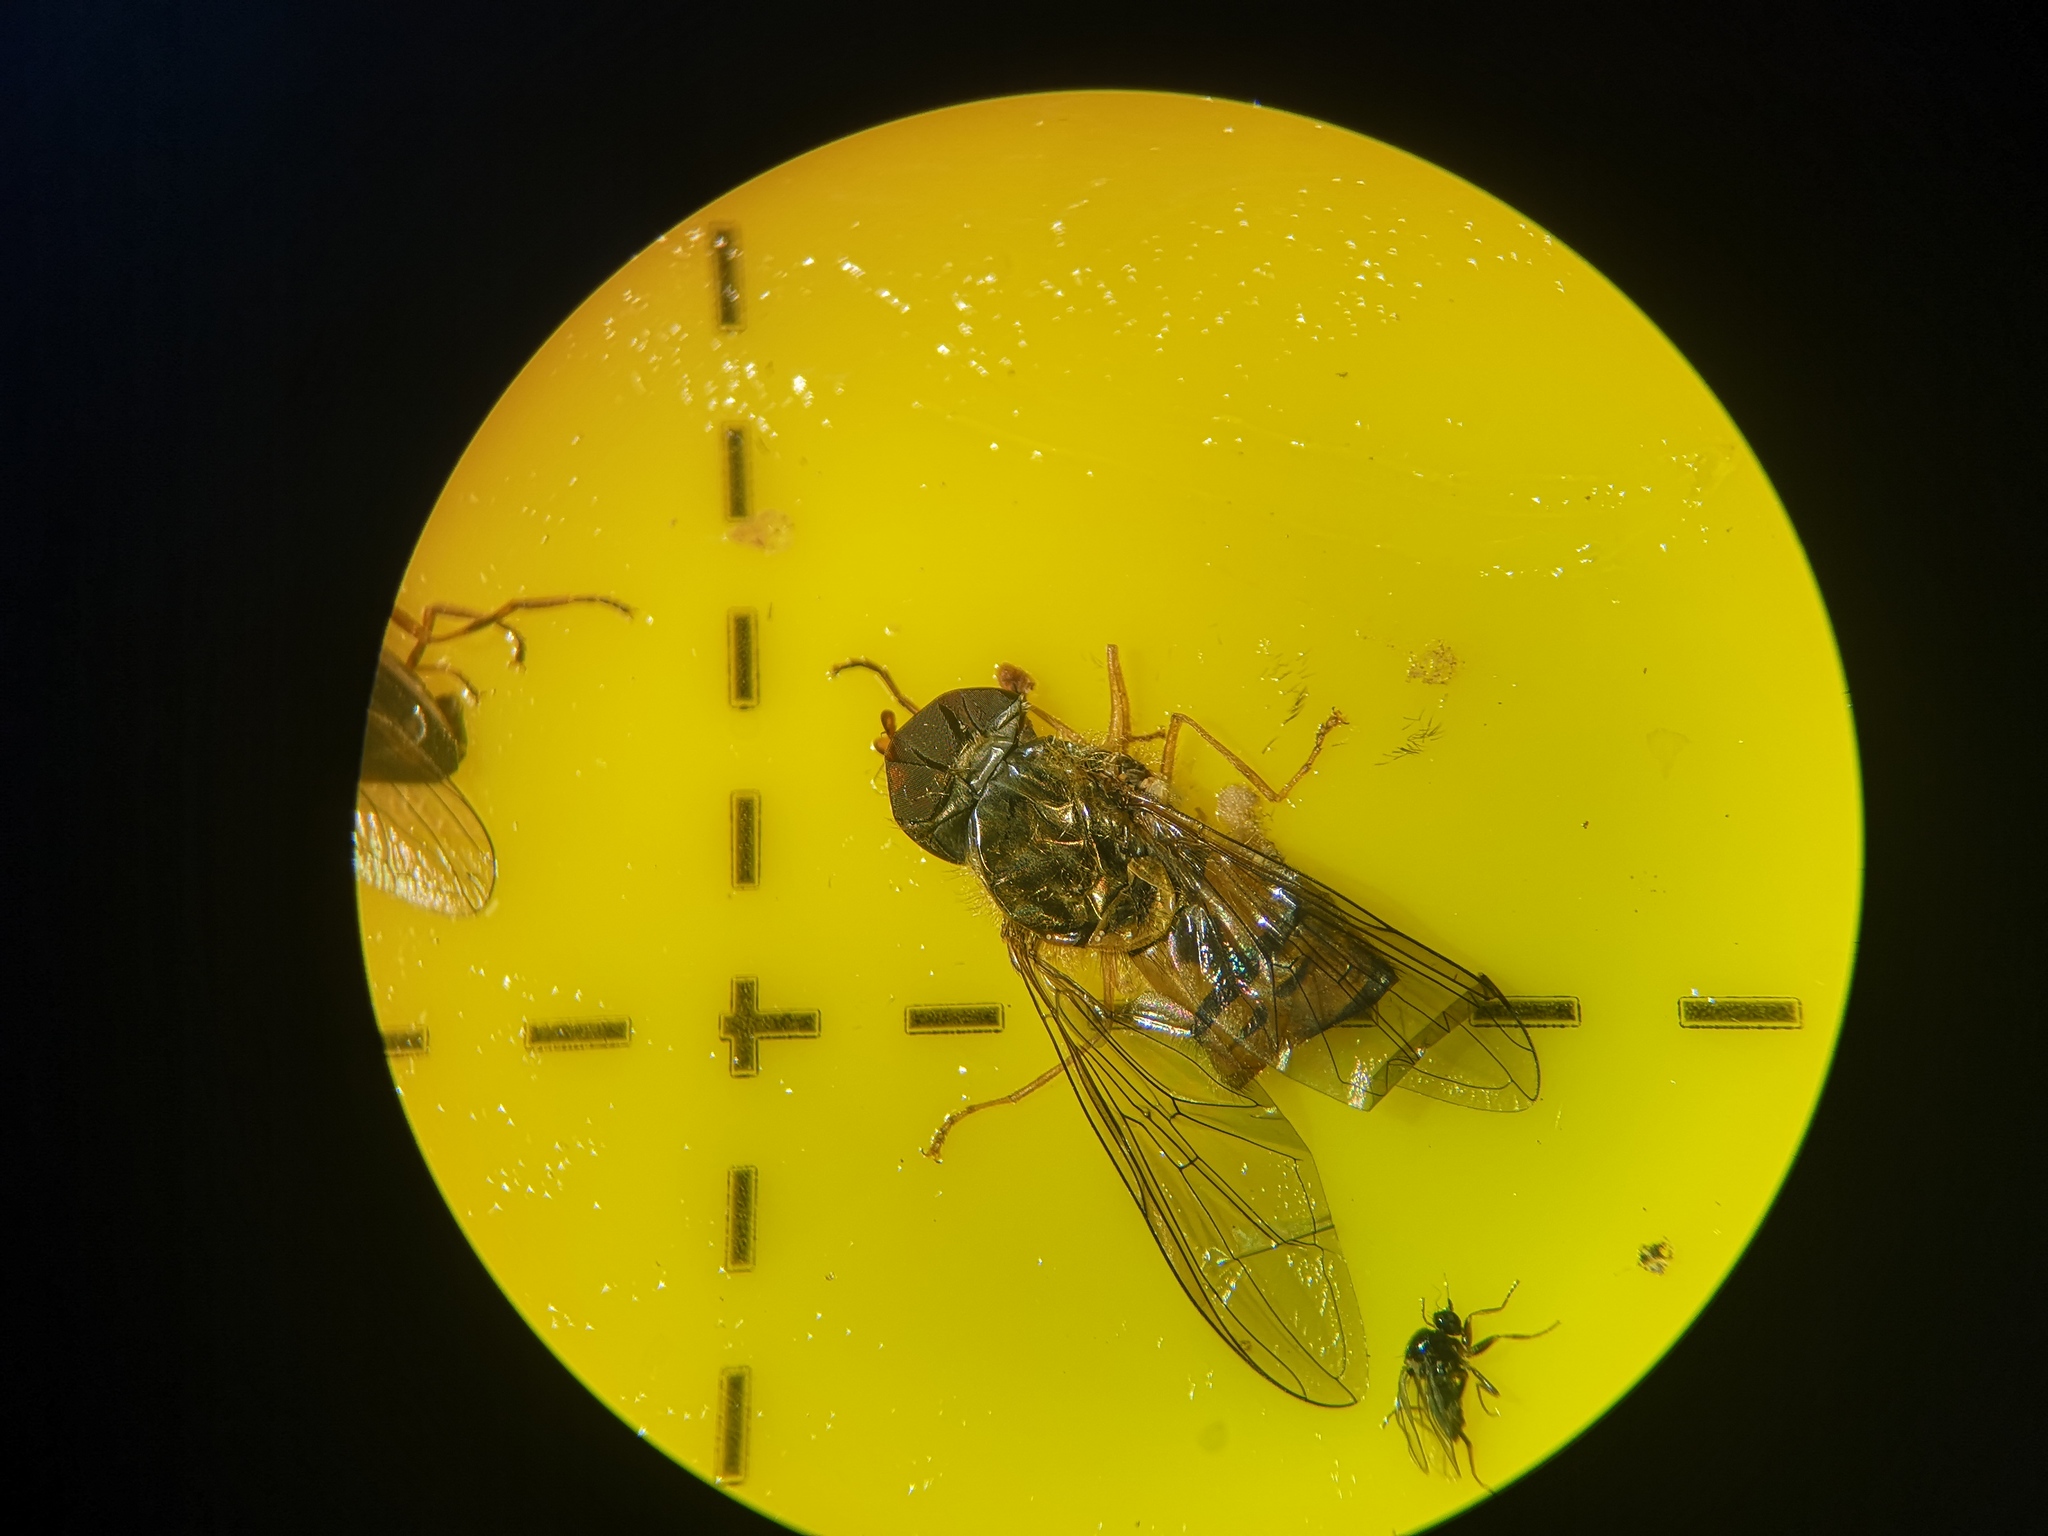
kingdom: Animalia
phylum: Arthropoda
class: Insecta
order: Diptera
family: Syrphidae
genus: Episyrphus
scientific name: Episyrphus balteatus
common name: Marmalade hoverfly
